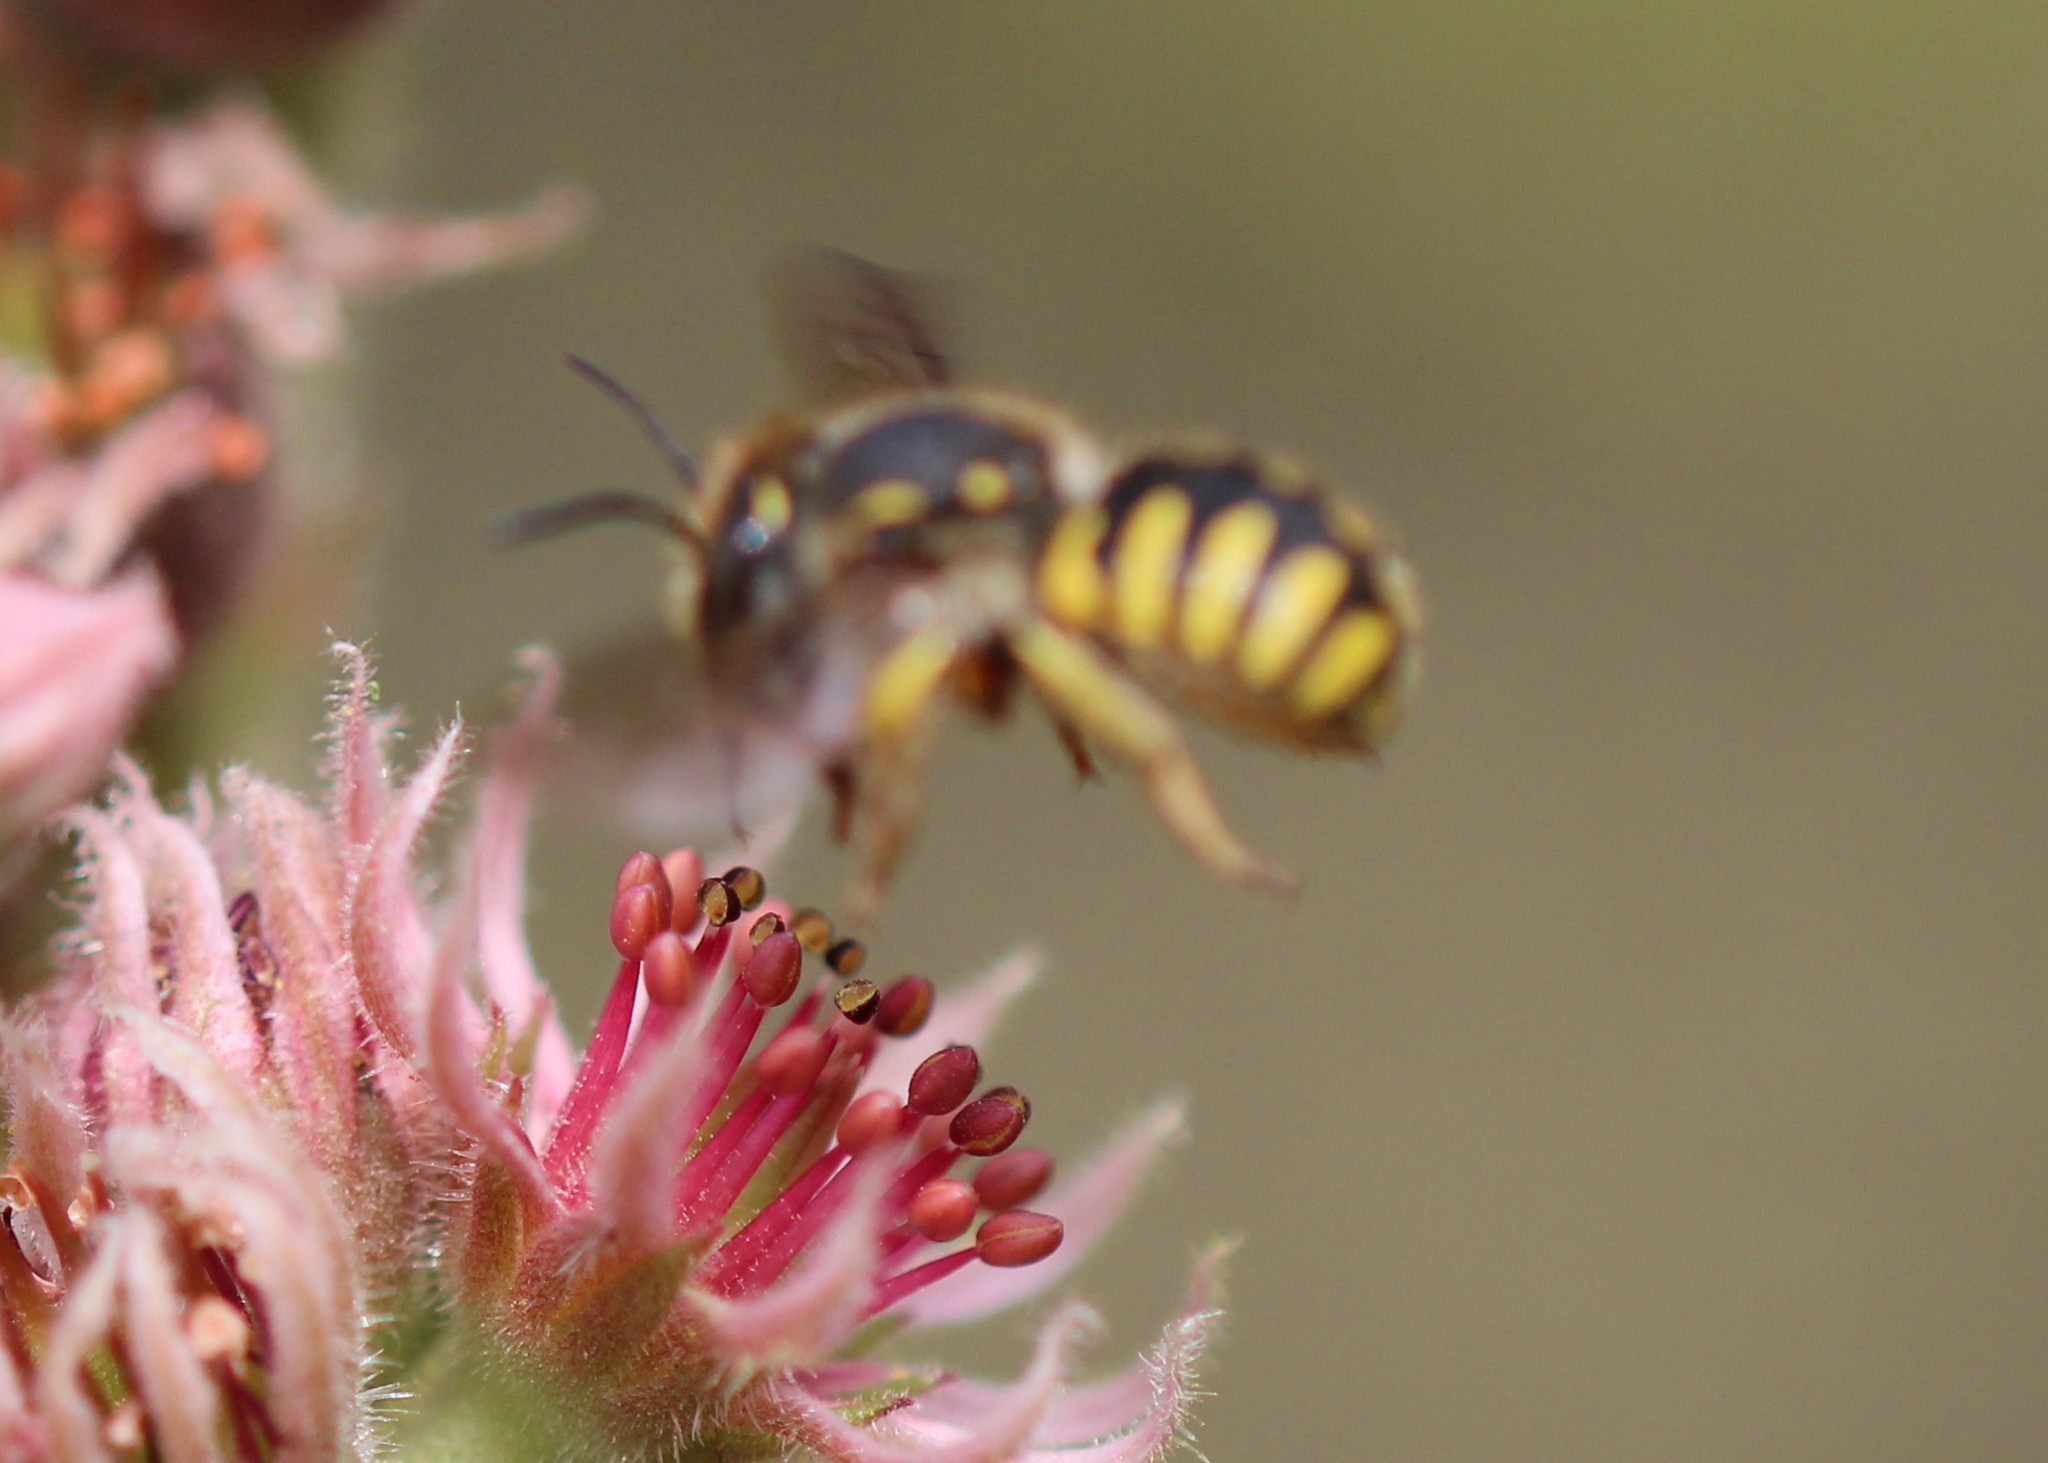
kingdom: Animalia
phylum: Arthropoda
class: Insecta
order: Hymenoptera
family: Megachilidae
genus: Anthidium
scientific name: Anthidium oblongatum
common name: Oblong wool carder bee
